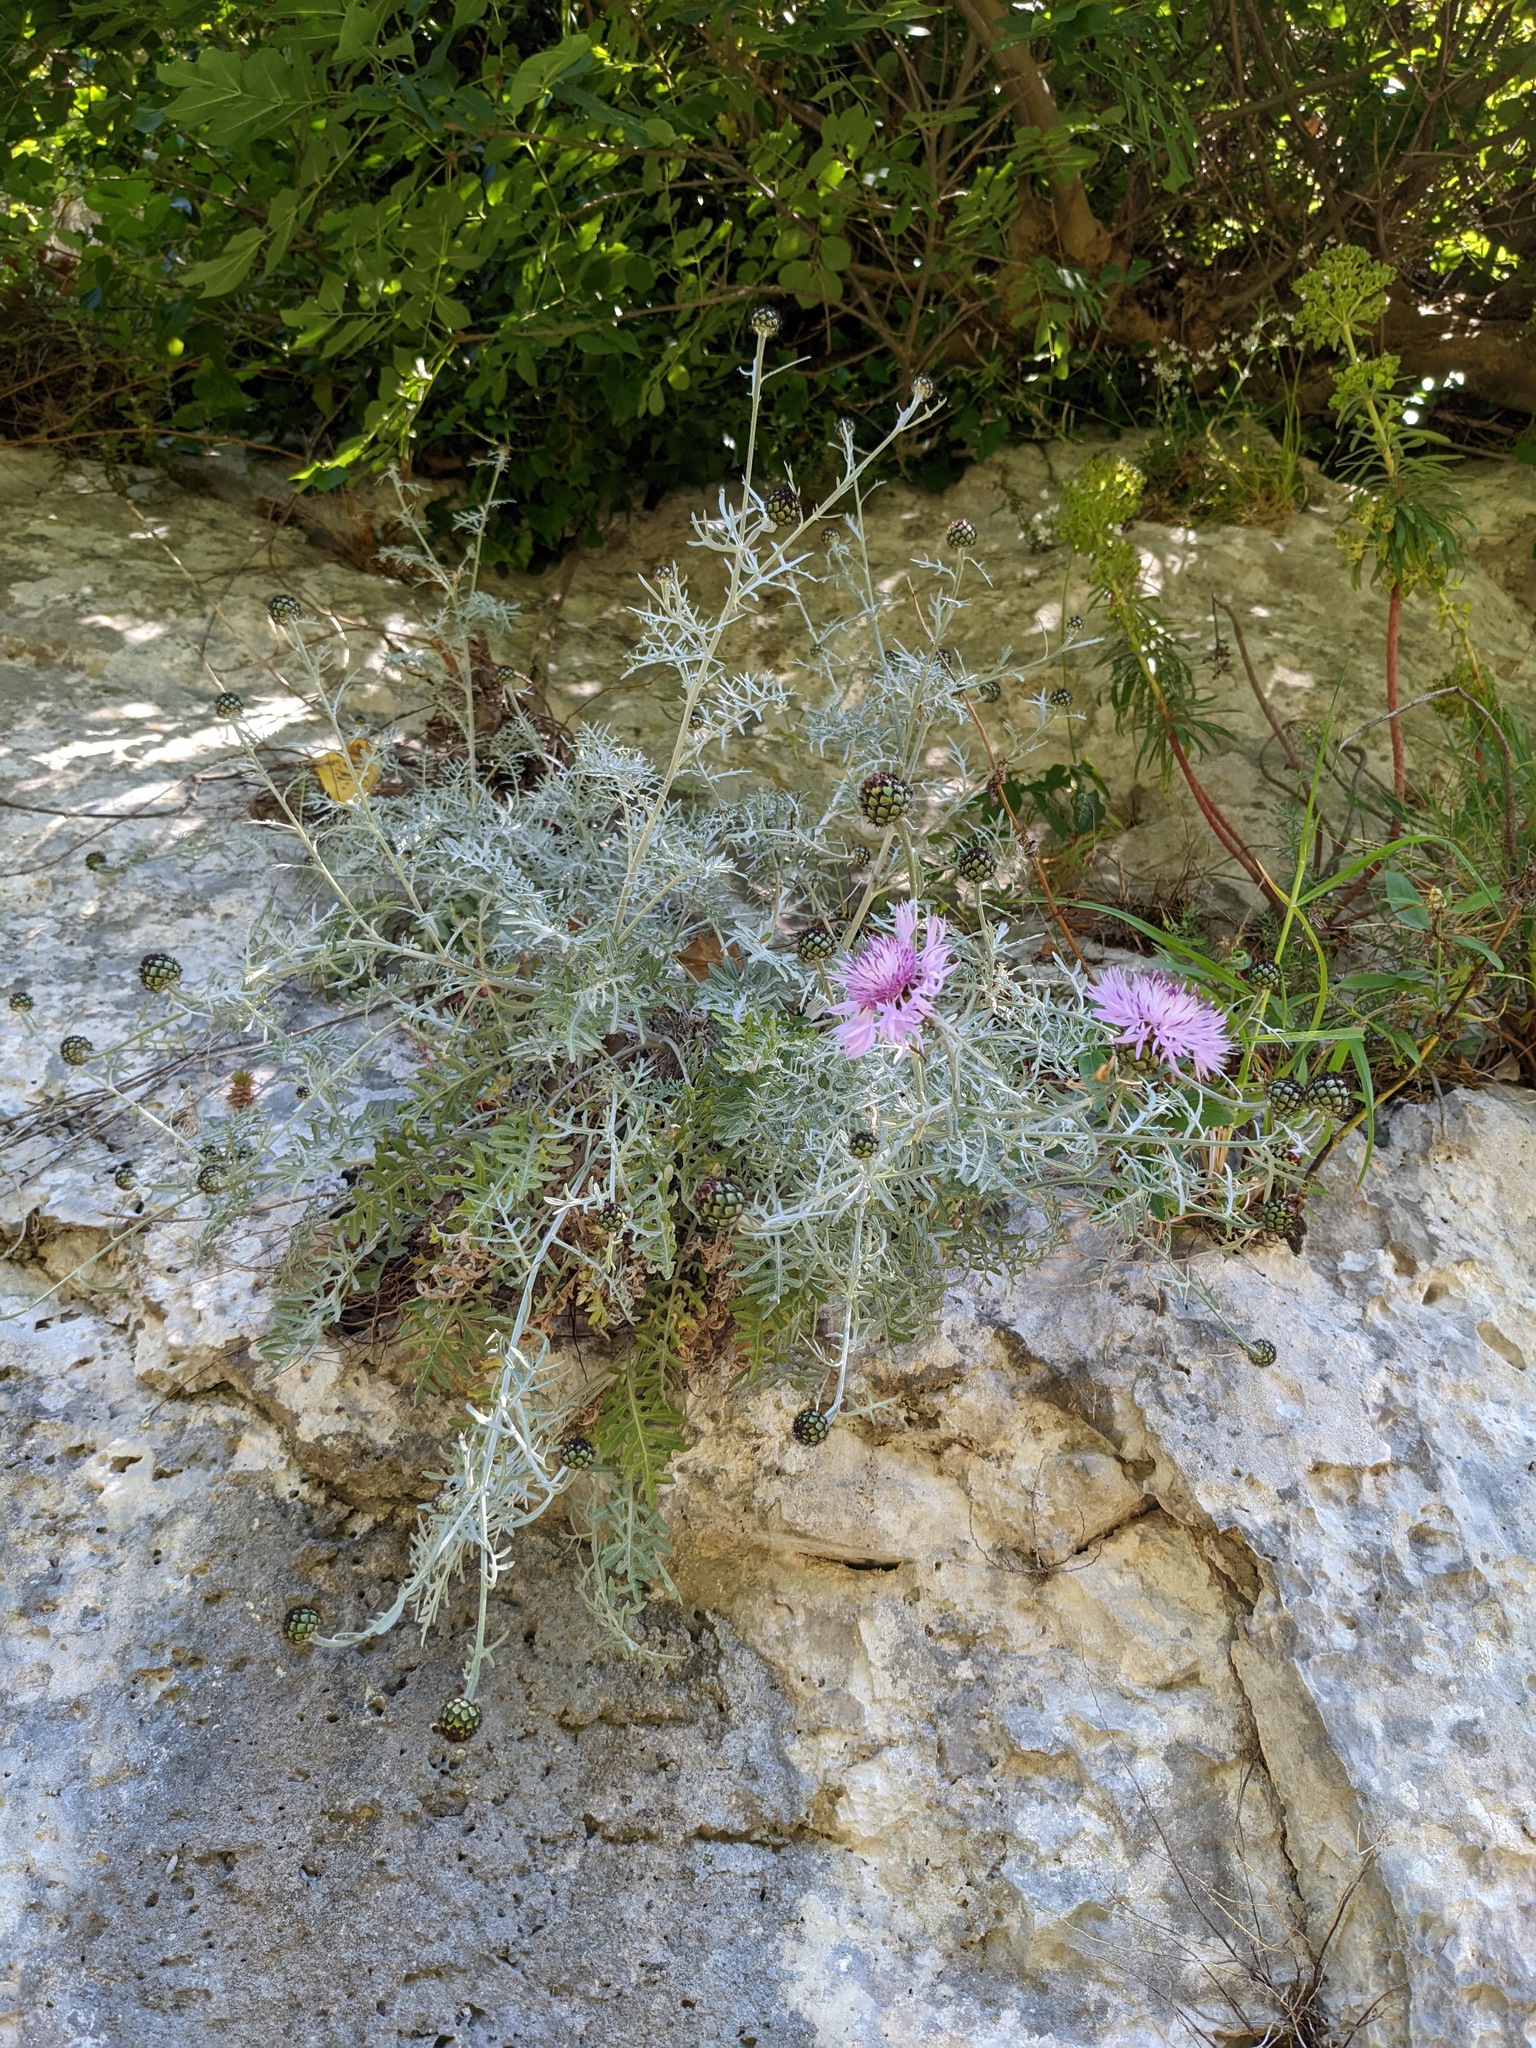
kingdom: Plantae
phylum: Tracheophyta
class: Magnoliopsida
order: Asterales
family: Asteraceae
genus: Centaurea
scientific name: Centaurea cineraria
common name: Dusty miller
